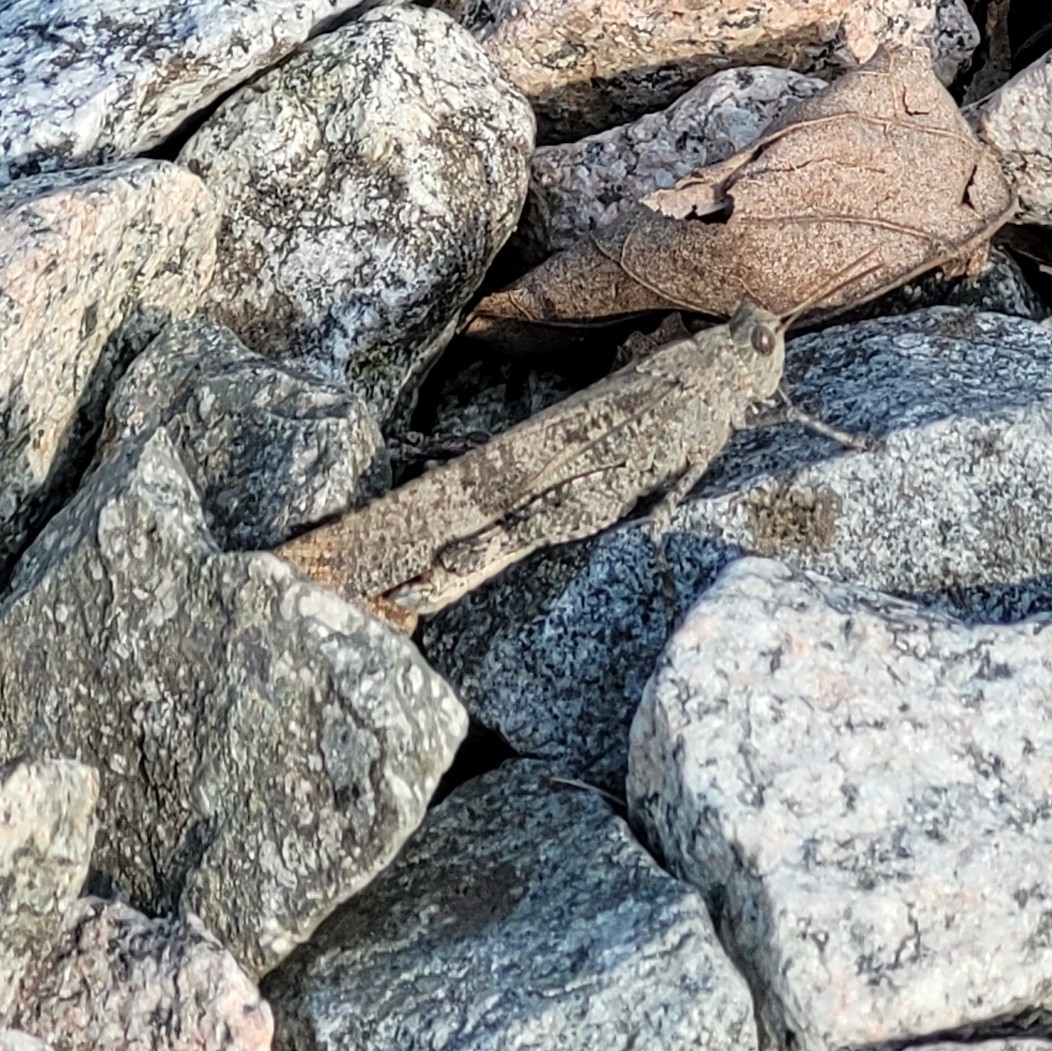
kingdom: Animalia
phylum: Arthropoda
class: Insecta
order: Orthoptera
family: Acrididae
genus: Dissosteira
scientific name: Dissosteira carolina
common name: Carolina grasshopper
